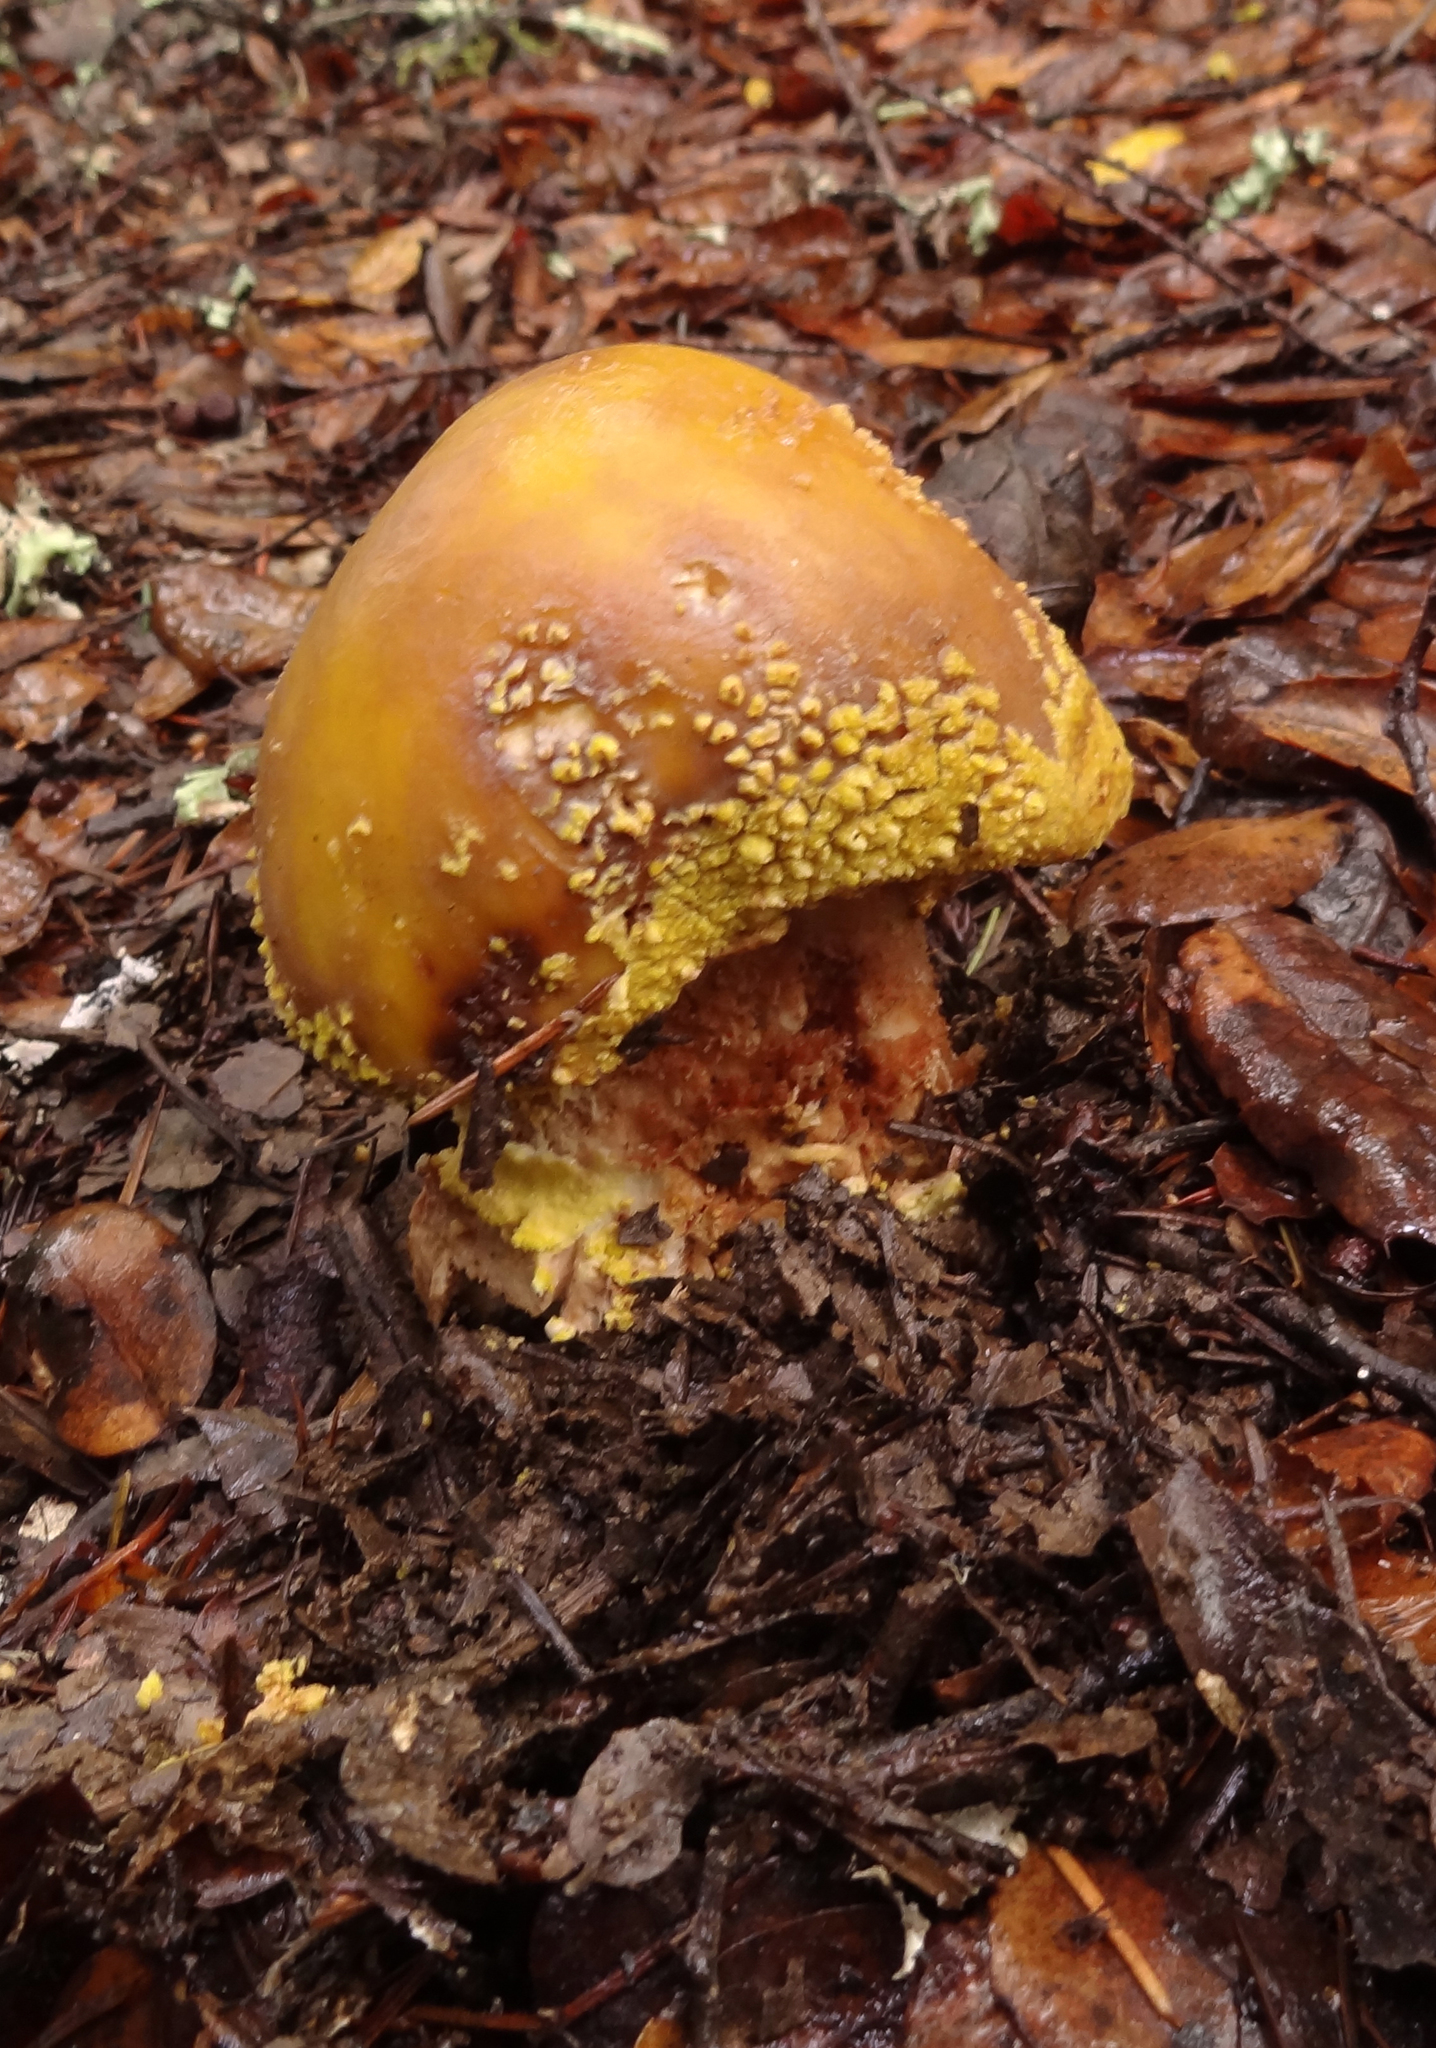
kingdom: Fungi
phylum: Basidiomycota
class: Agaricomycetes
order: Agaricales
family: Amanitaceae
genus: Amanita
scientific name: Amanita augusta
